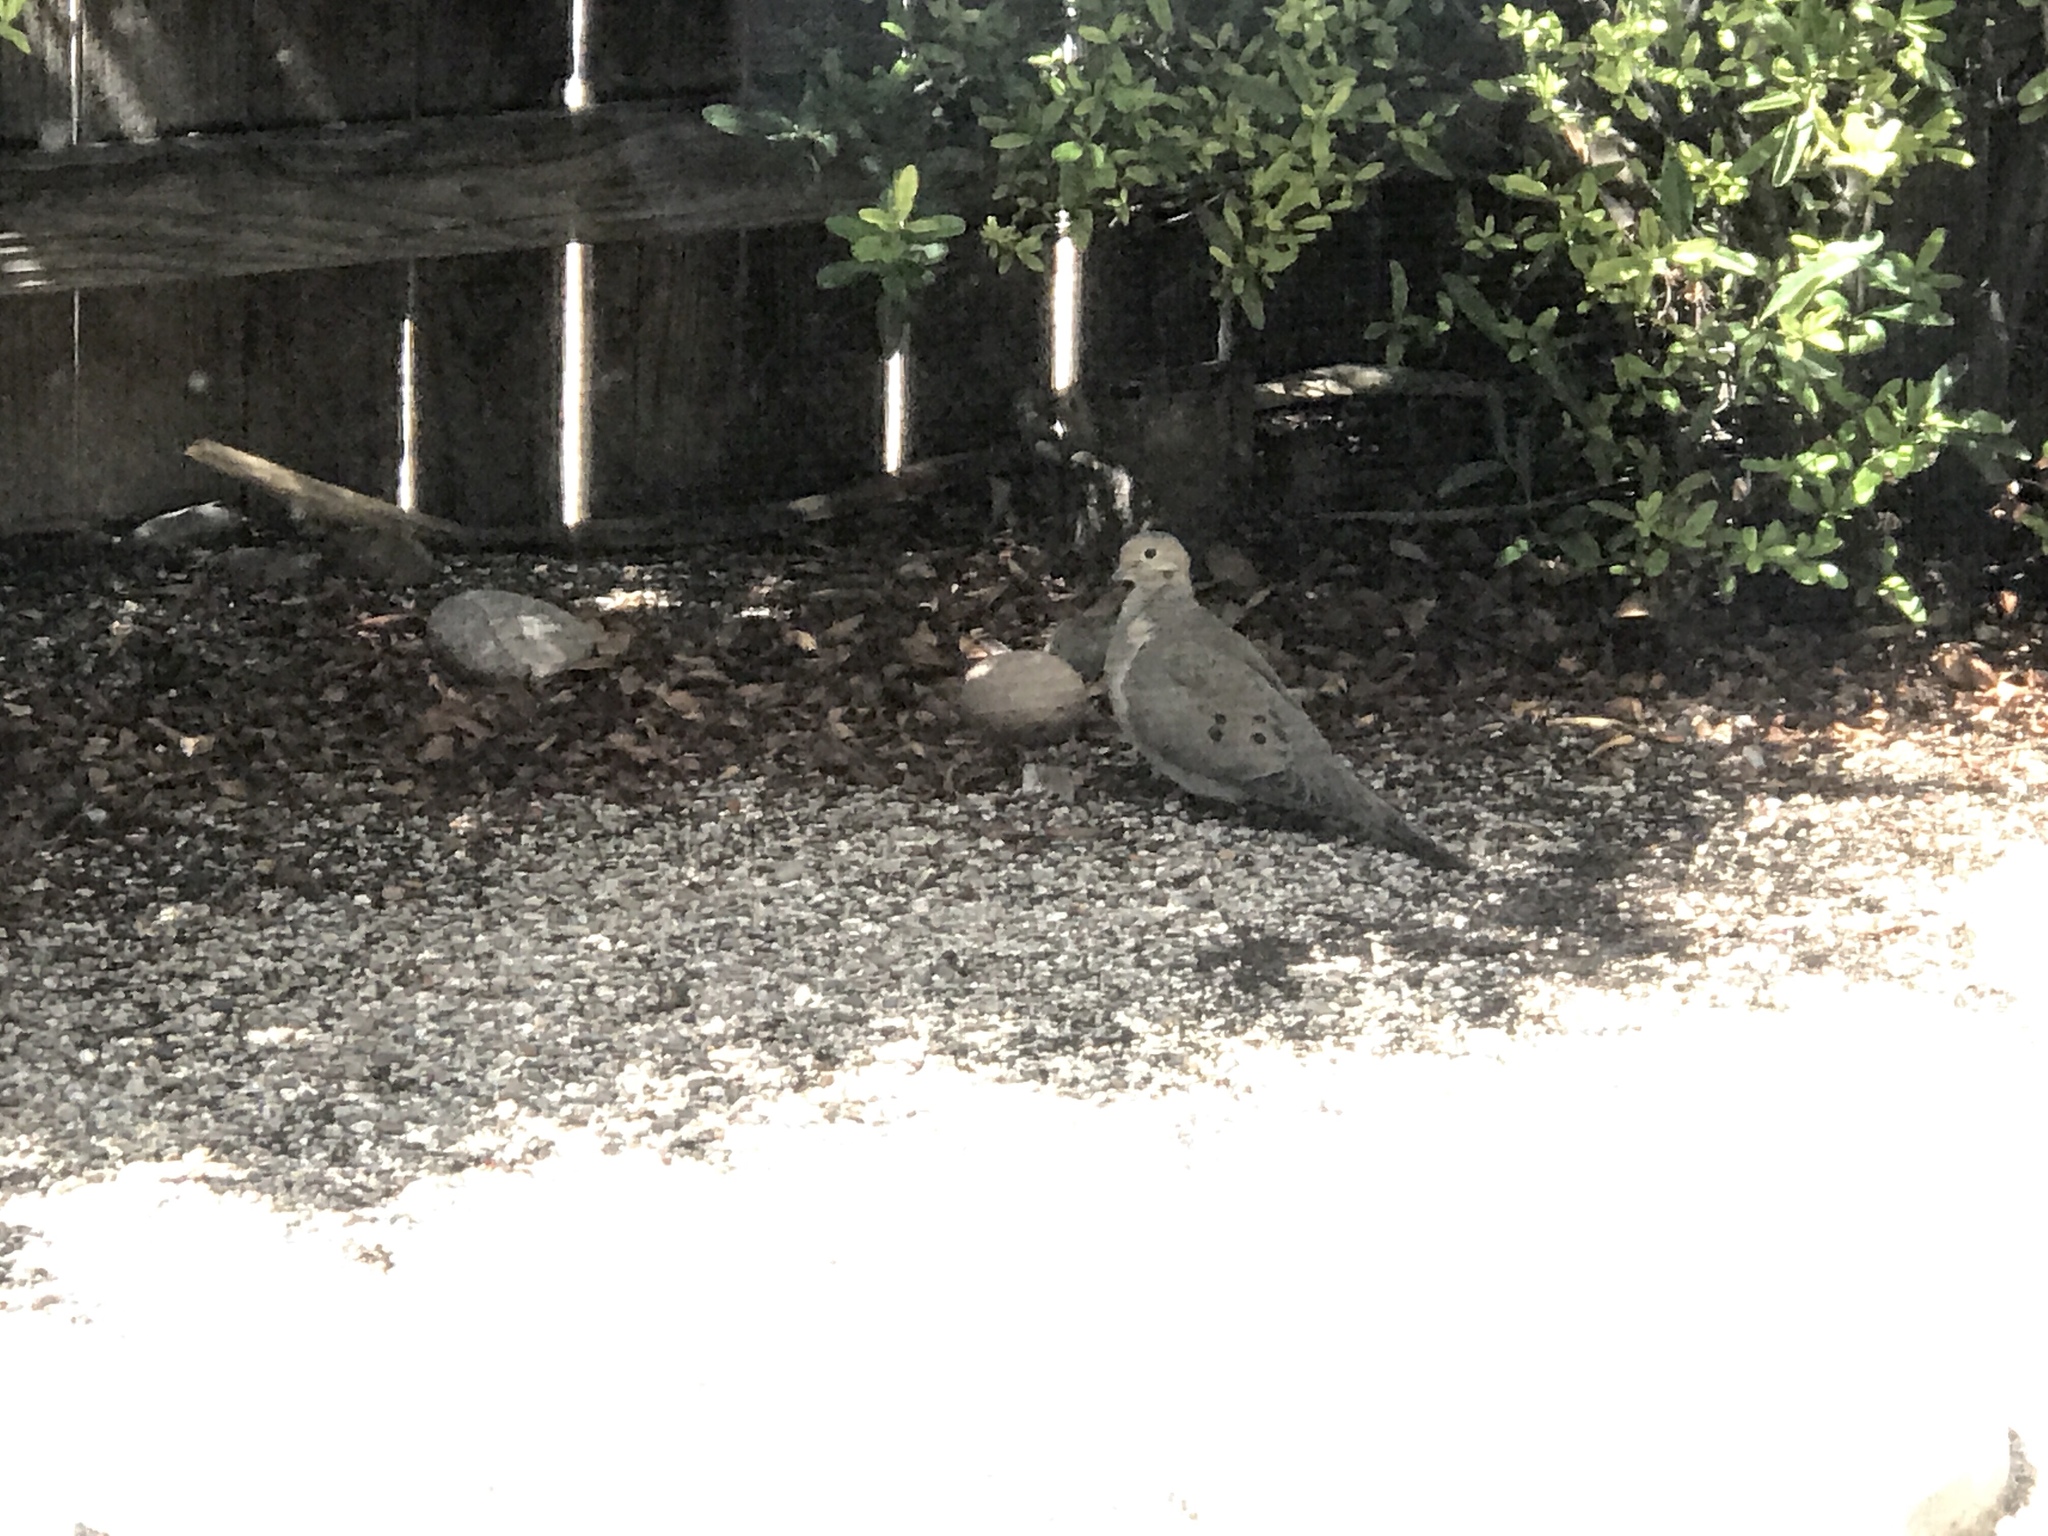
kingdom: Animalia
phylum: Chordata
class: Aves
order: Columbiformes
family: Columbidae
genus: Zenaida
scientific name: Zenaida macroura
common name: Mourning dove
